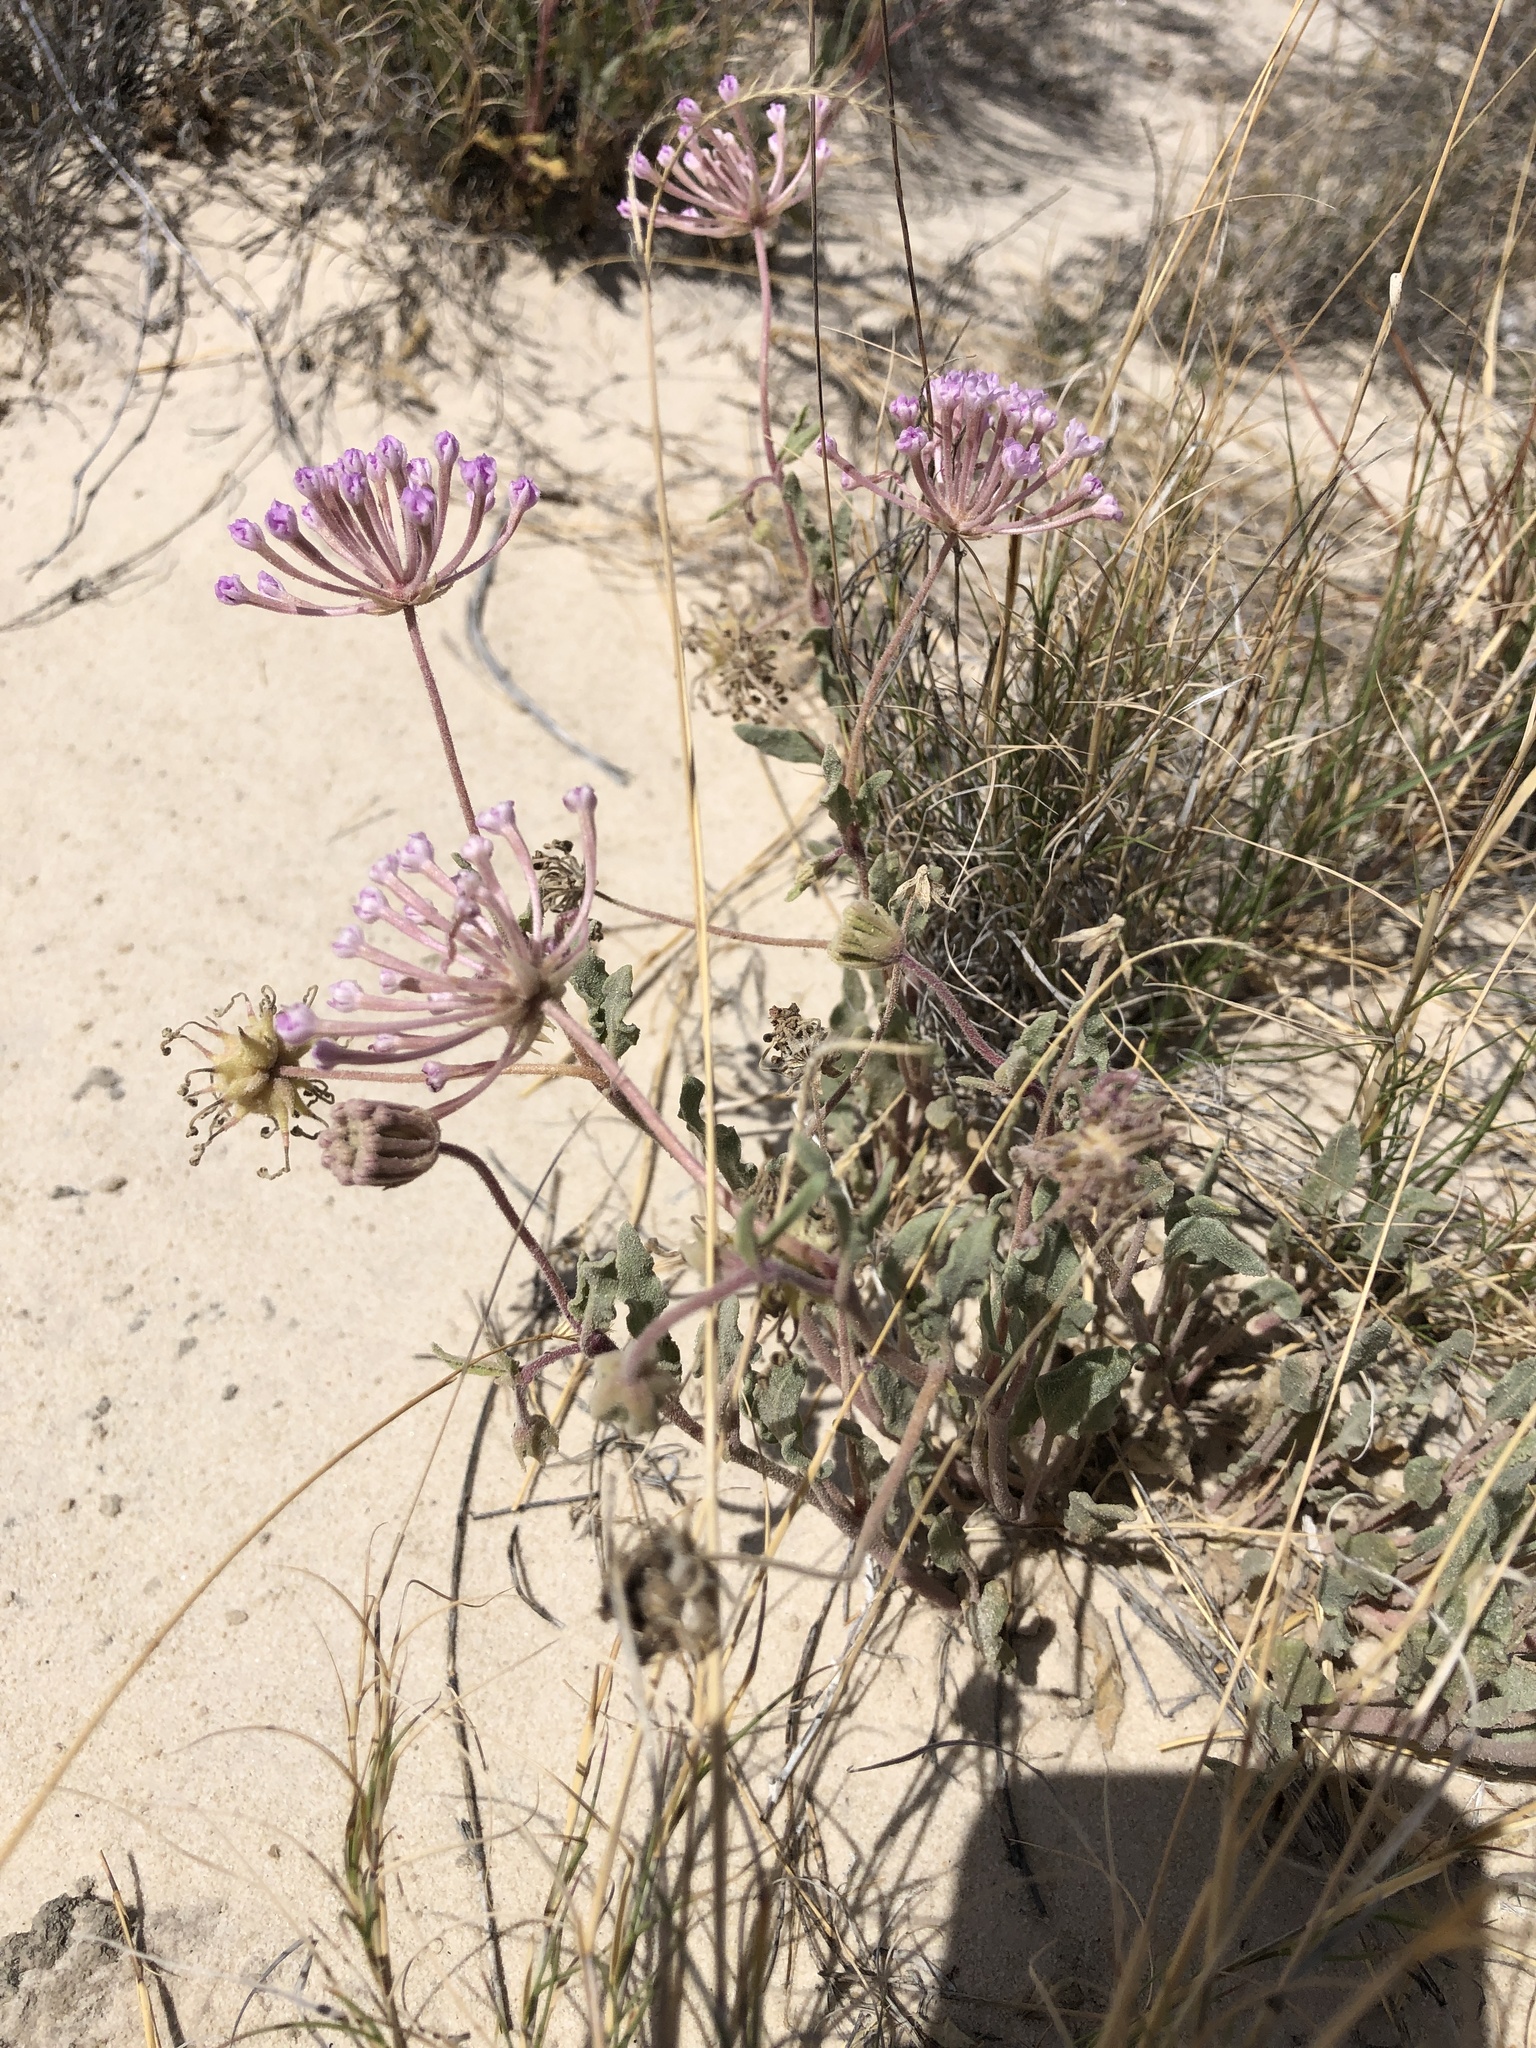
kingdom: Plantae
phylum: Tracheophyta
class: Magnoliopsida
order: Caryophyllales
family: Nyctaginaceae
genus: Abronia
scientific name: Abronia angustifolia
